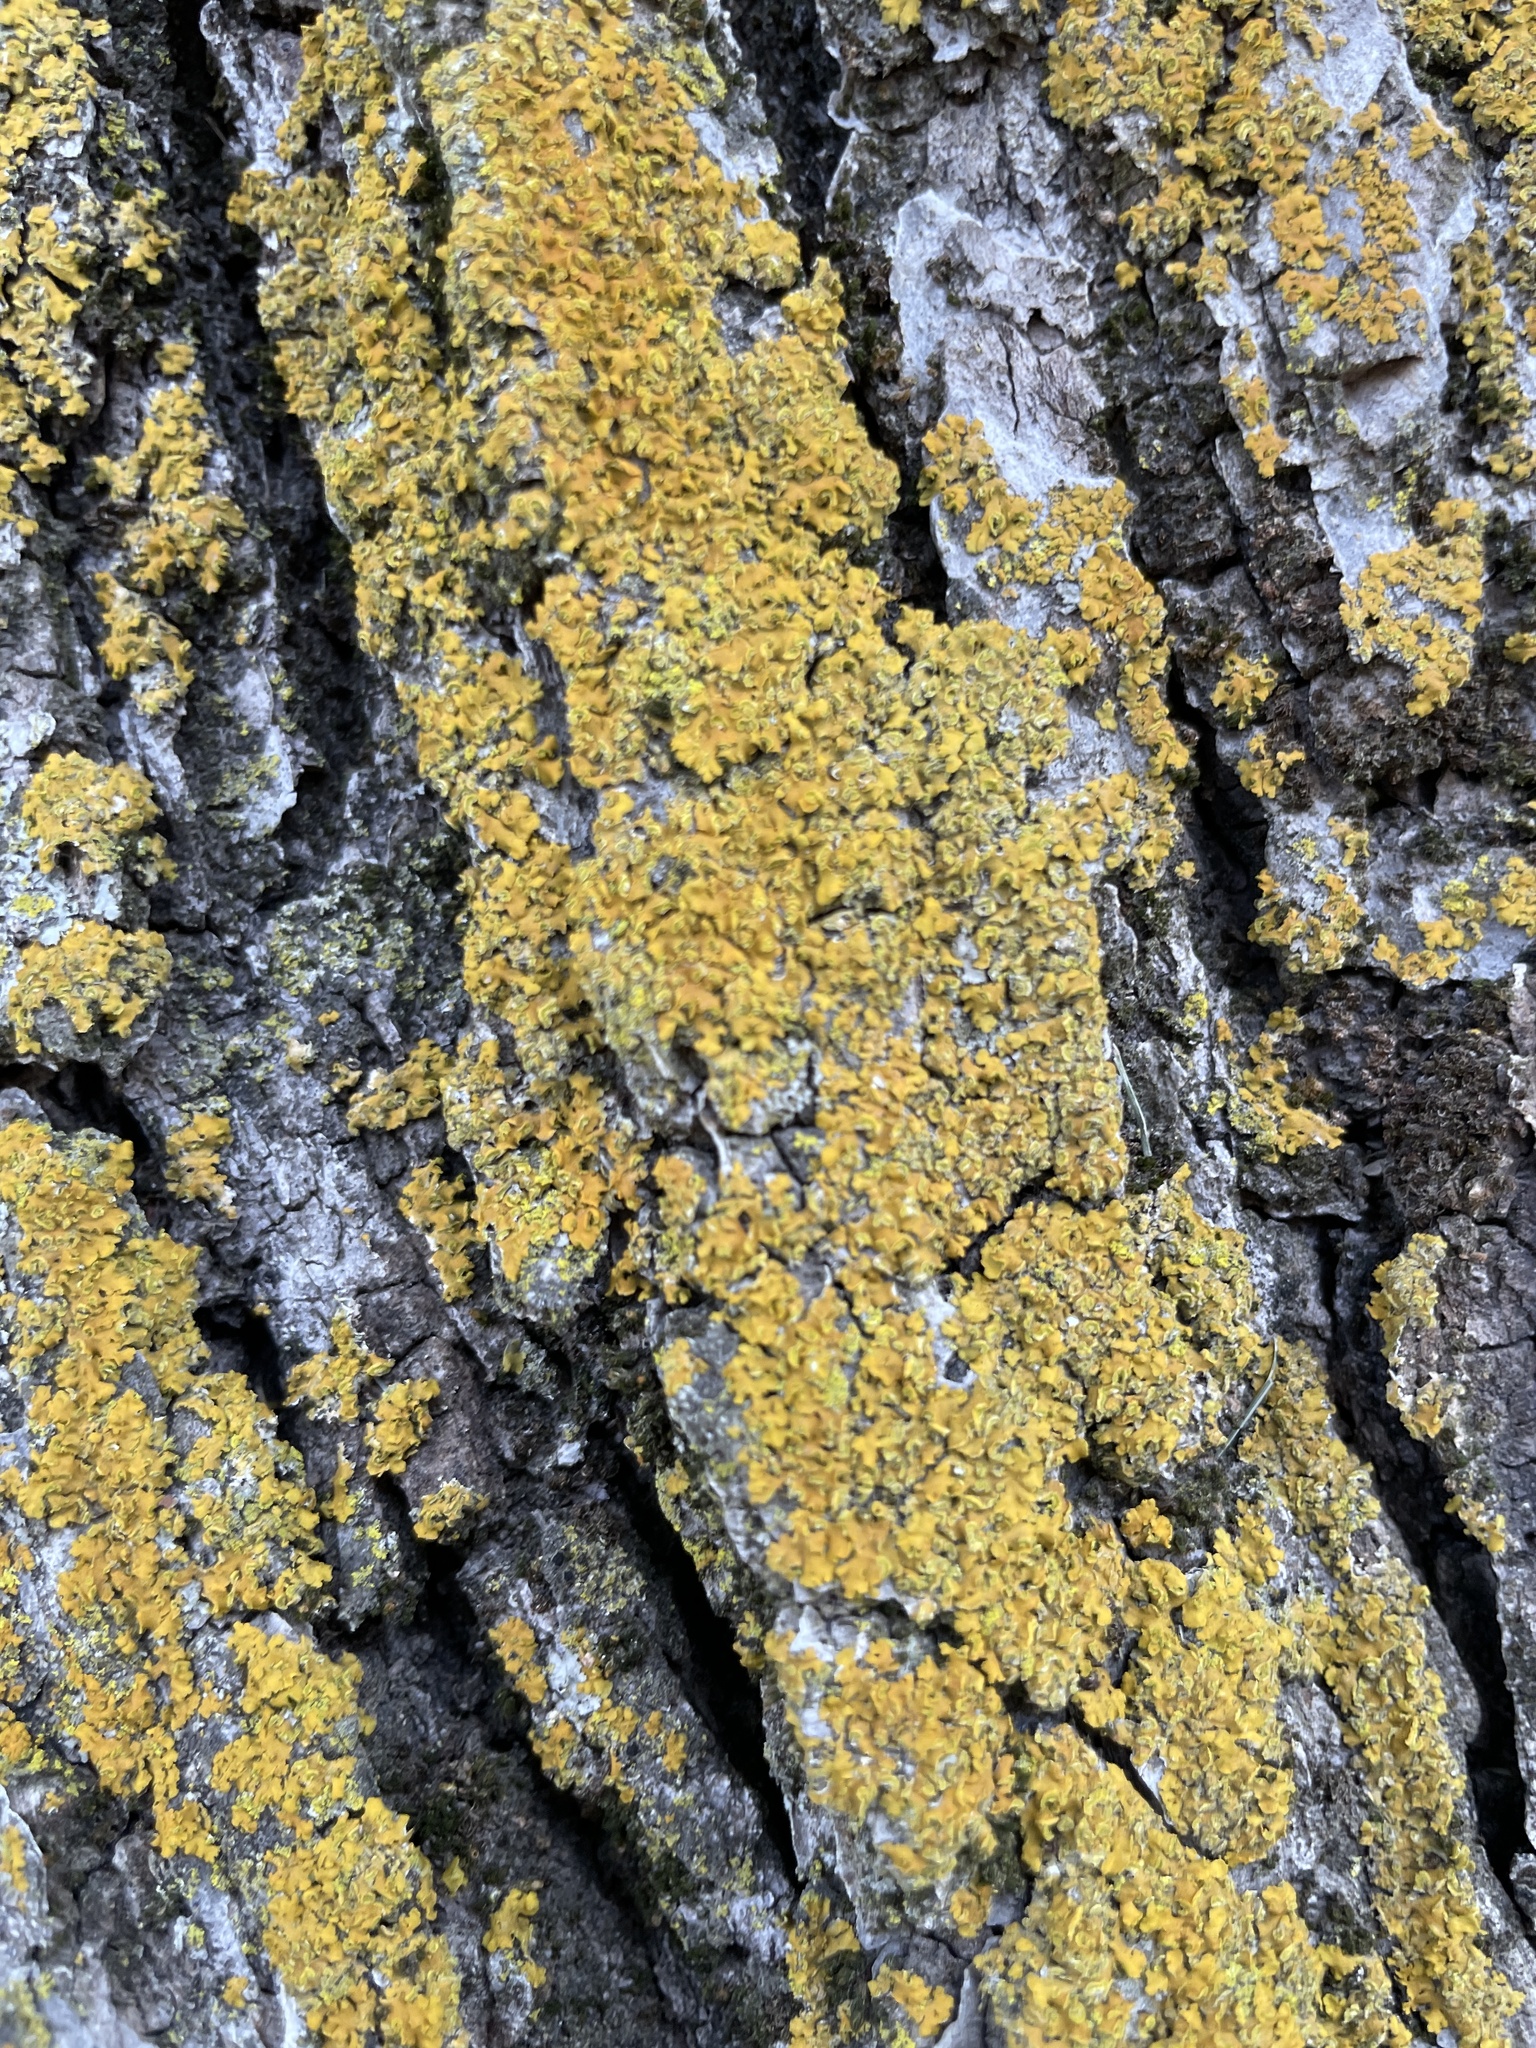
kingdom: Fungi
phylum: Ascomycota
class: Candelariomycetes
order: Candelariales
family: Candelariaceae
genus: Candelaria
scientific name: Candelaria concolor
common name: Candleflame lichen
